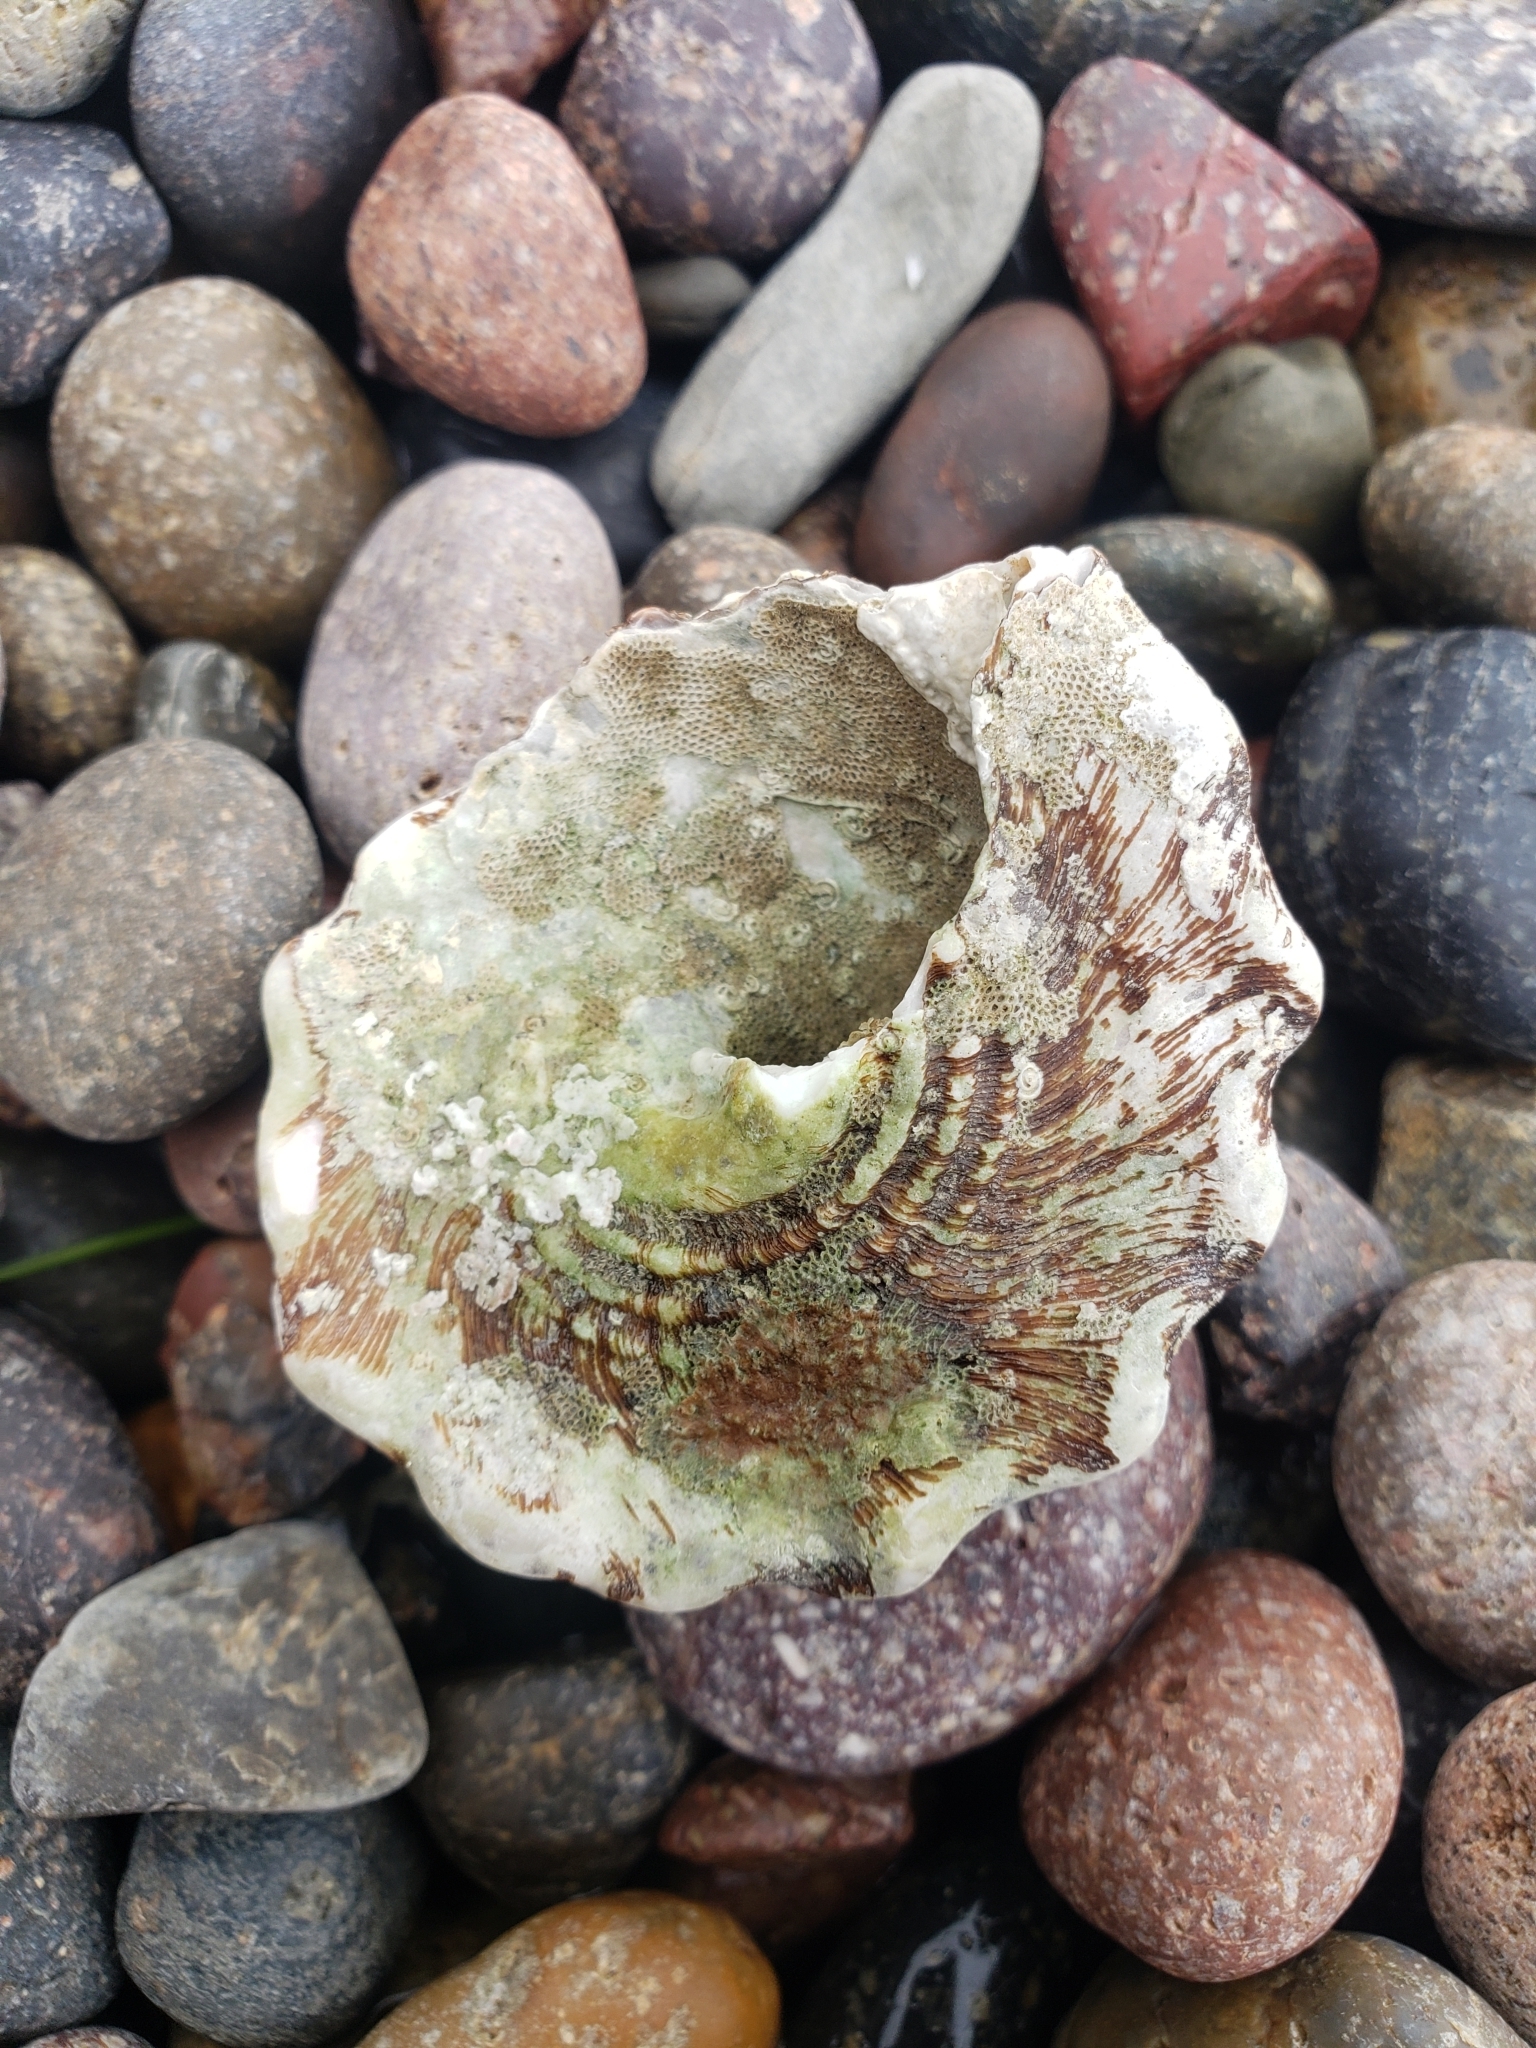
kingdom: Animalia
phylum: Mollusca
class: Gastropoda
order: Trochida
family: Turbinidae
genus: Megastraea
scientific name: Megastraea undosa
